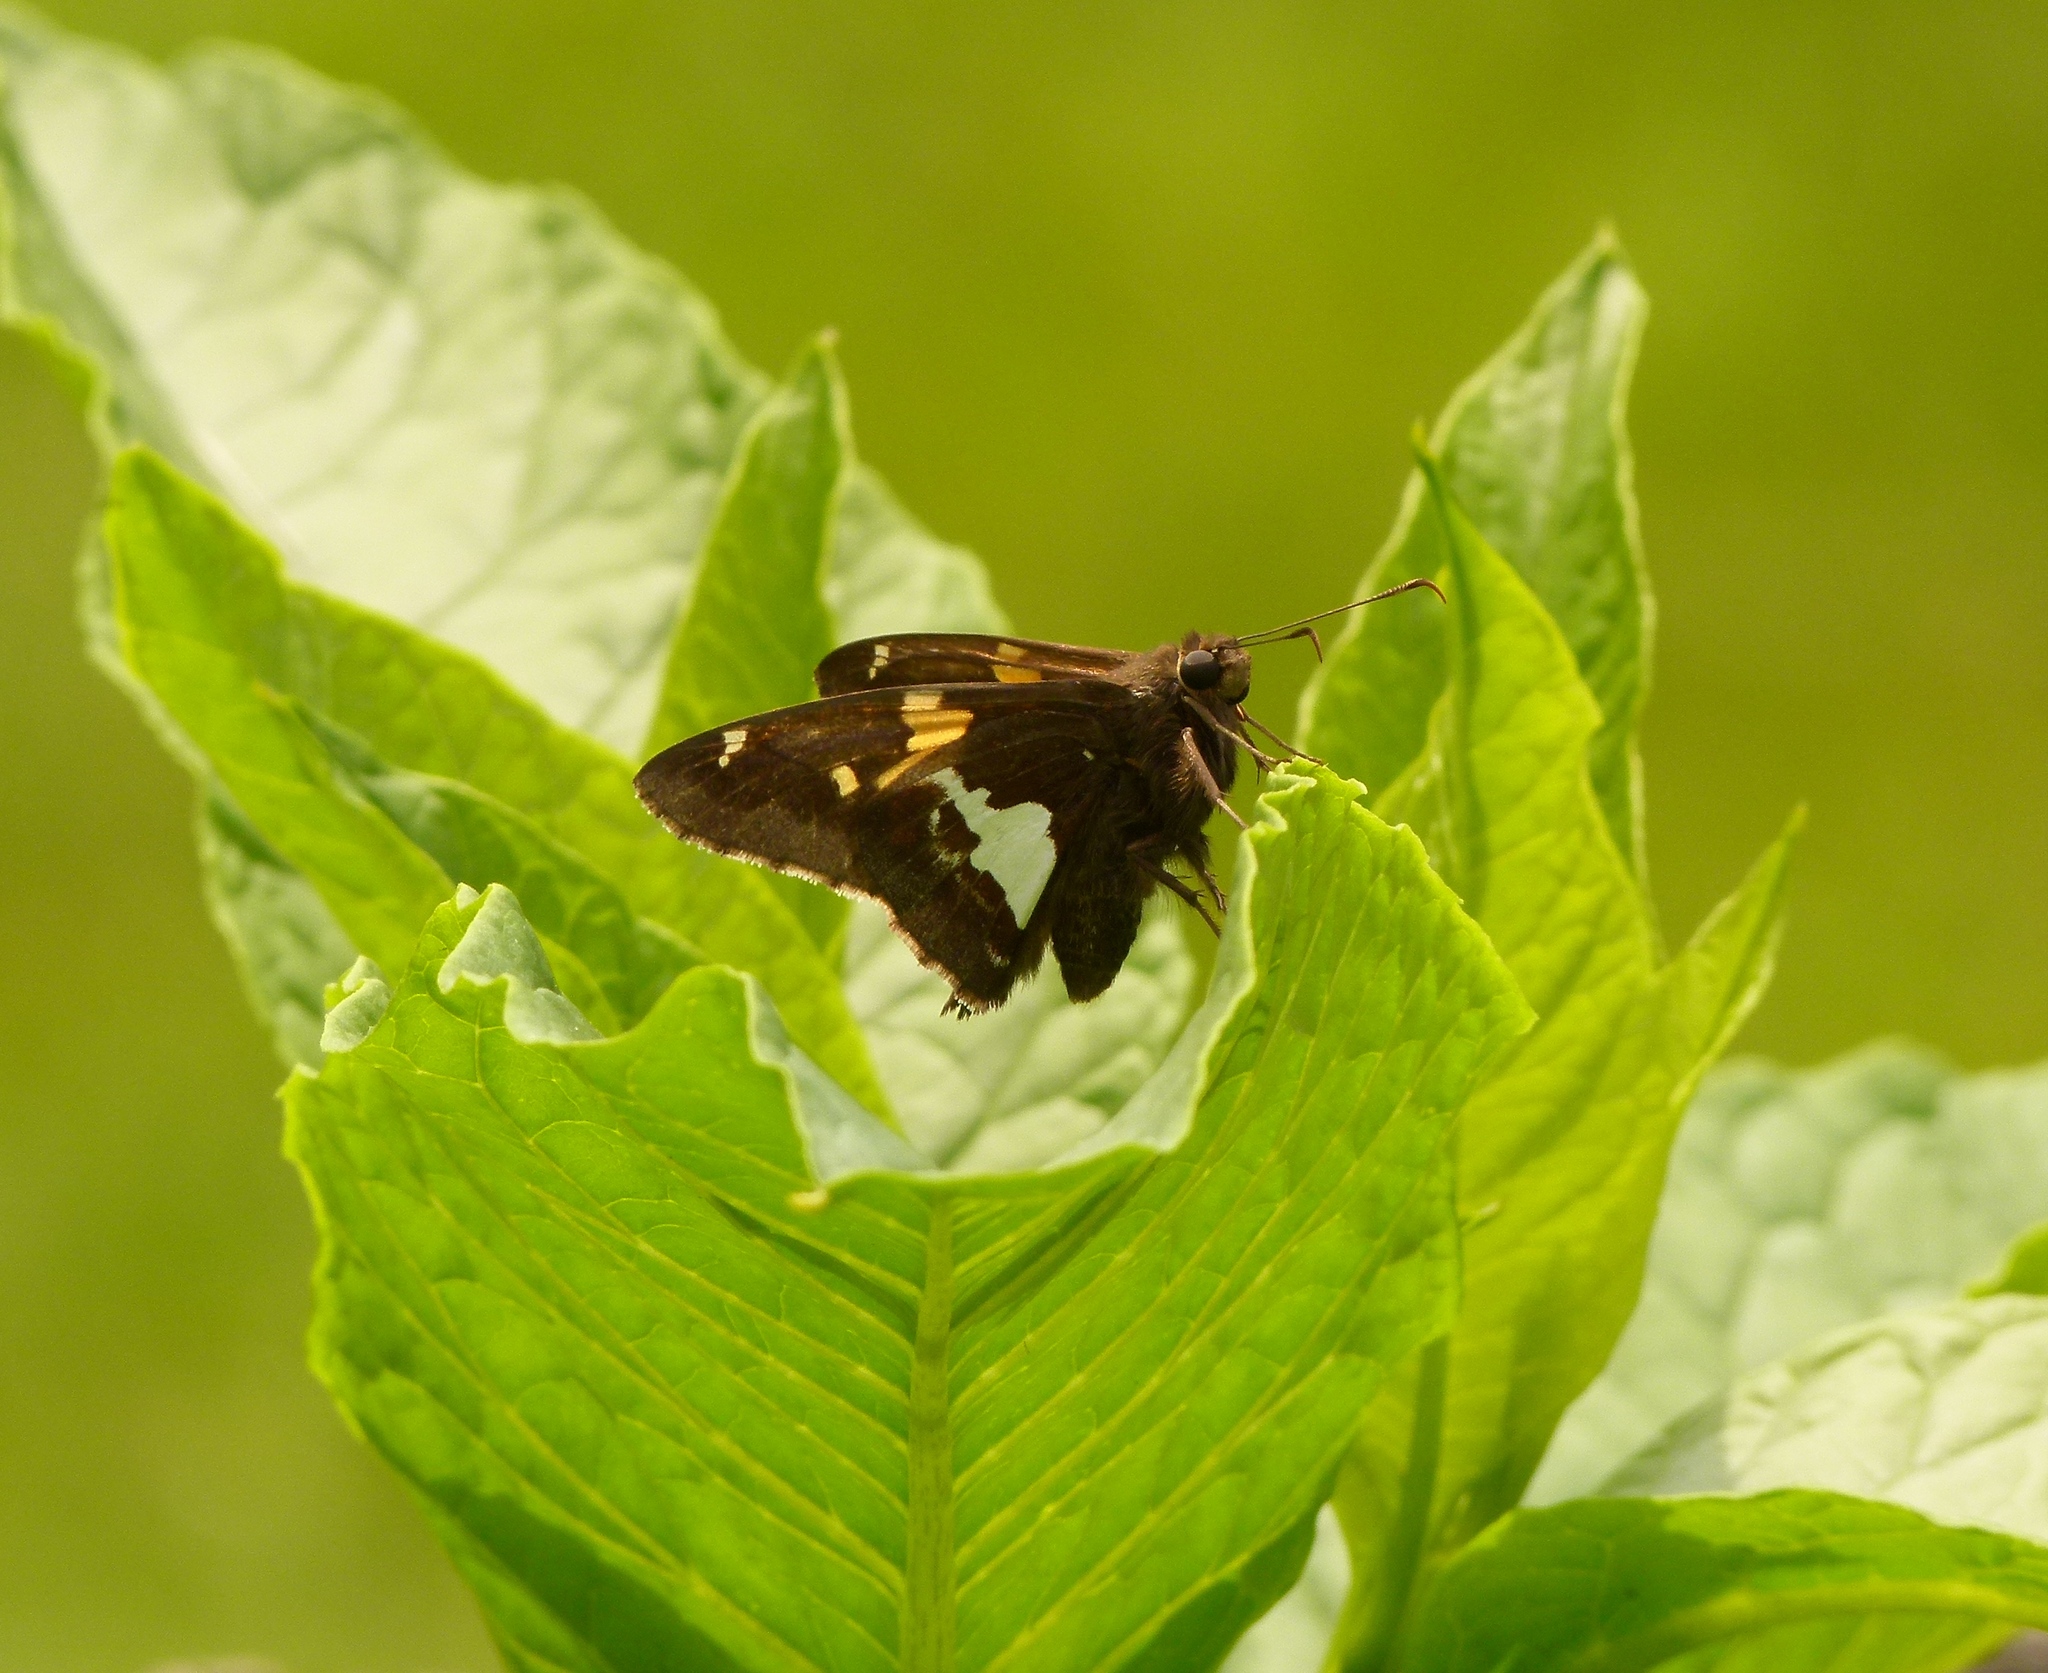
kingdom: Animalia
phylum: Arthropoda
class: Insecta
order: Lepidoptera
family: Hesperiidae
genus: Epargyreus
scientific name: Epargyreus clarus
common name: Silver-spotted skipper
